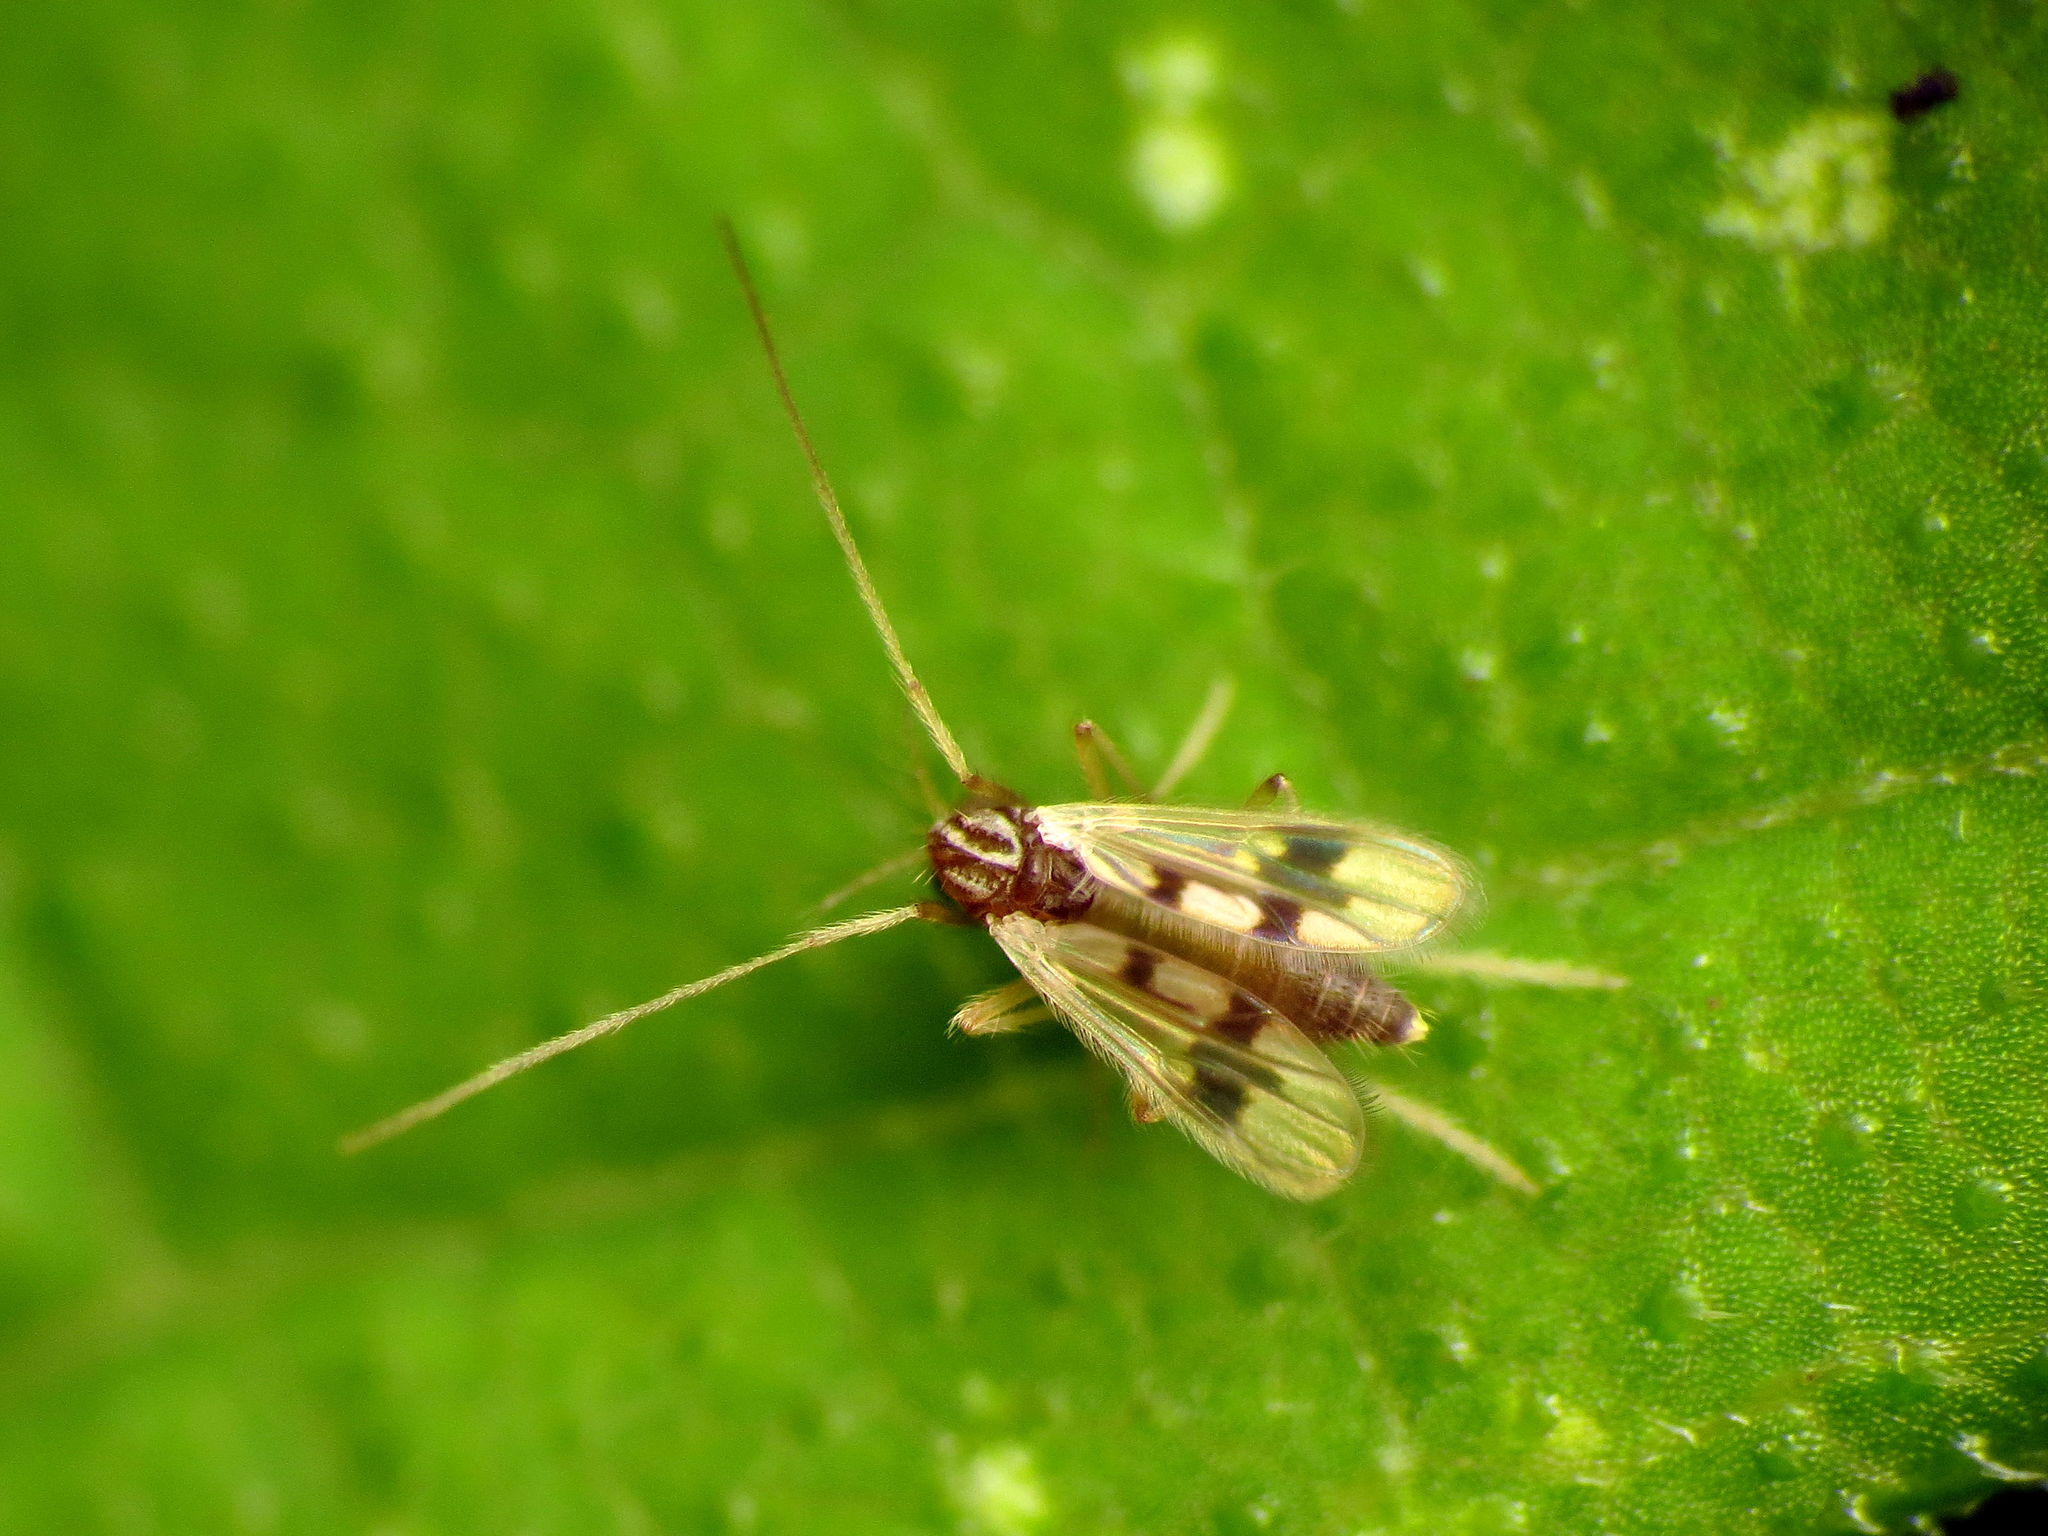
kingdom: Animalia
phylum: Arthropoda
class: Insecta
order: Diptera
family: Chironomidae
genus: Polypedilum
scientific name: Polypedilum scalaenum
